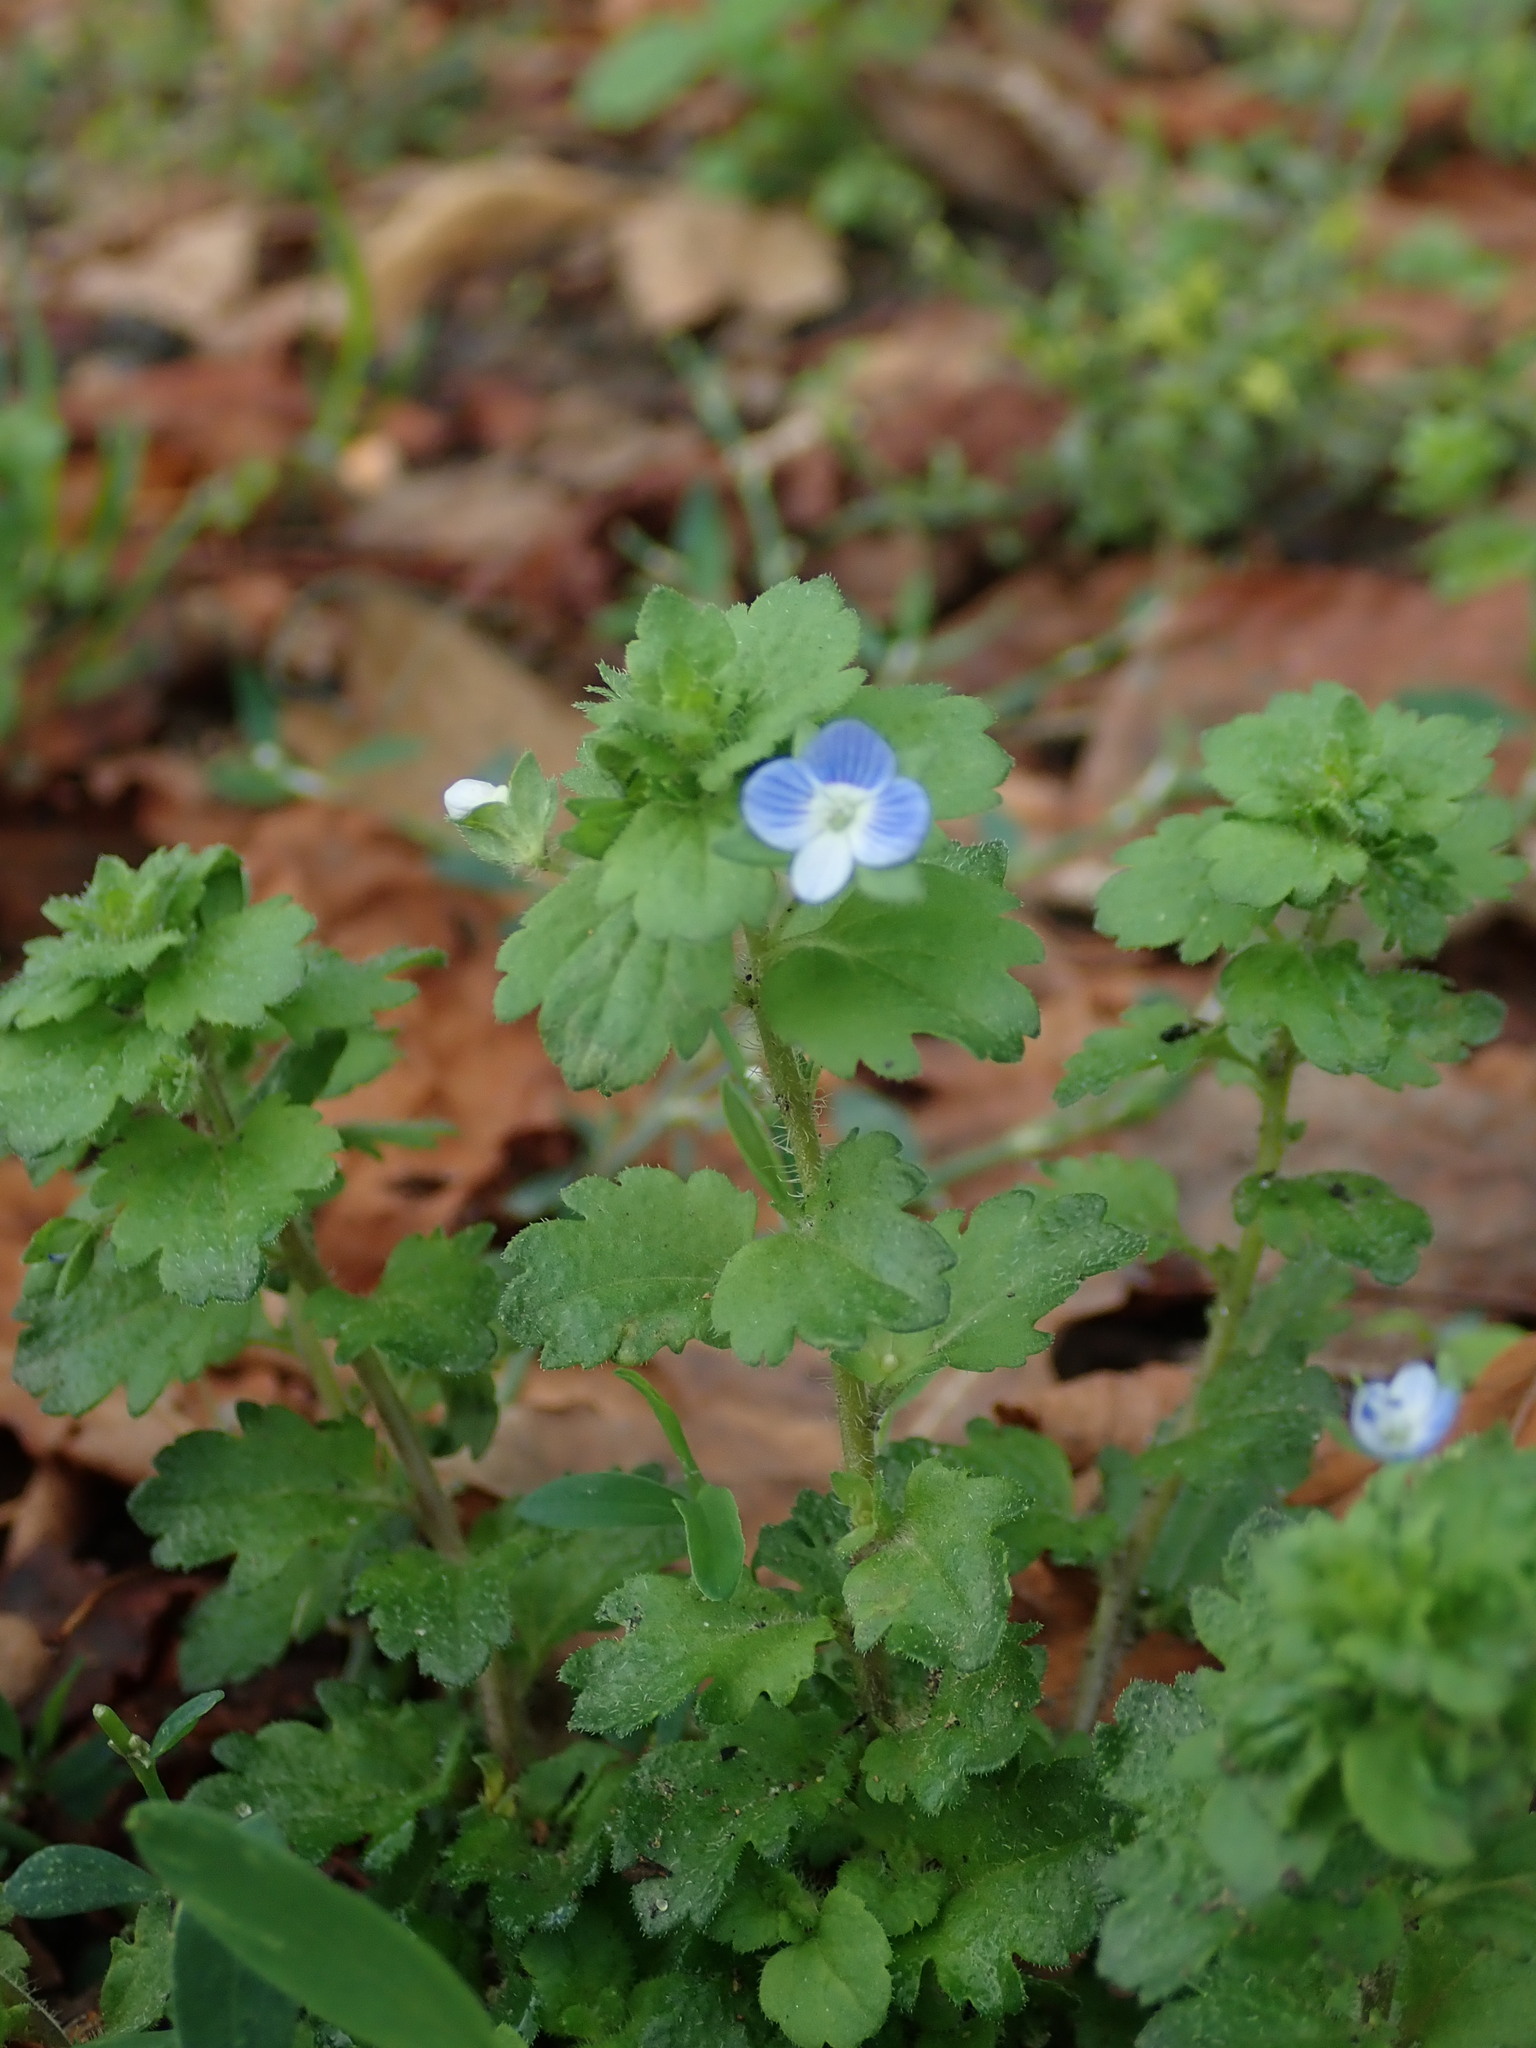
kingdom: Plantae
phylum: Tracheophyta
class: Magnoliopsida
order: Lamiales
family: Plantaginaceae
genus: Veronica
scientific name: Veronica persica
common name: Common field-speedwell
